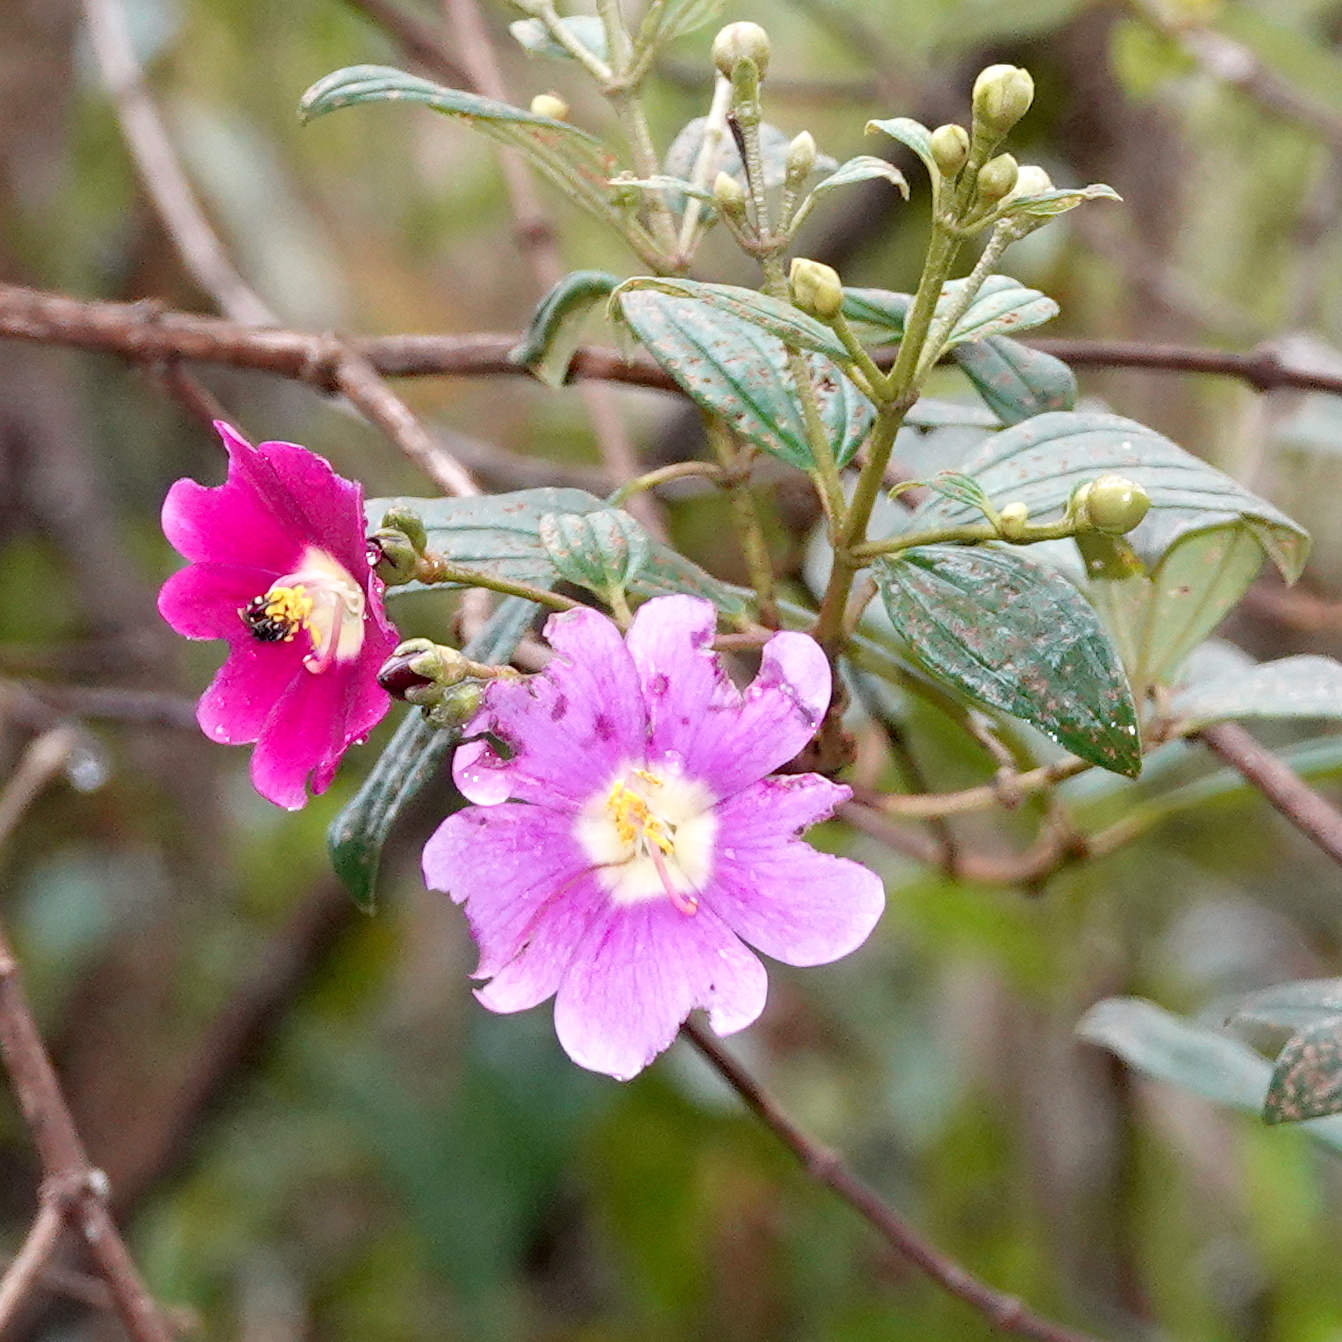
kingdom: Plantae
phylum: Tracheophyta
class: Magnoliopsida
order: Myrtales
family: Melastomataceae
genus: Andesanthus
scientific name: Andesanthus lepidotus
